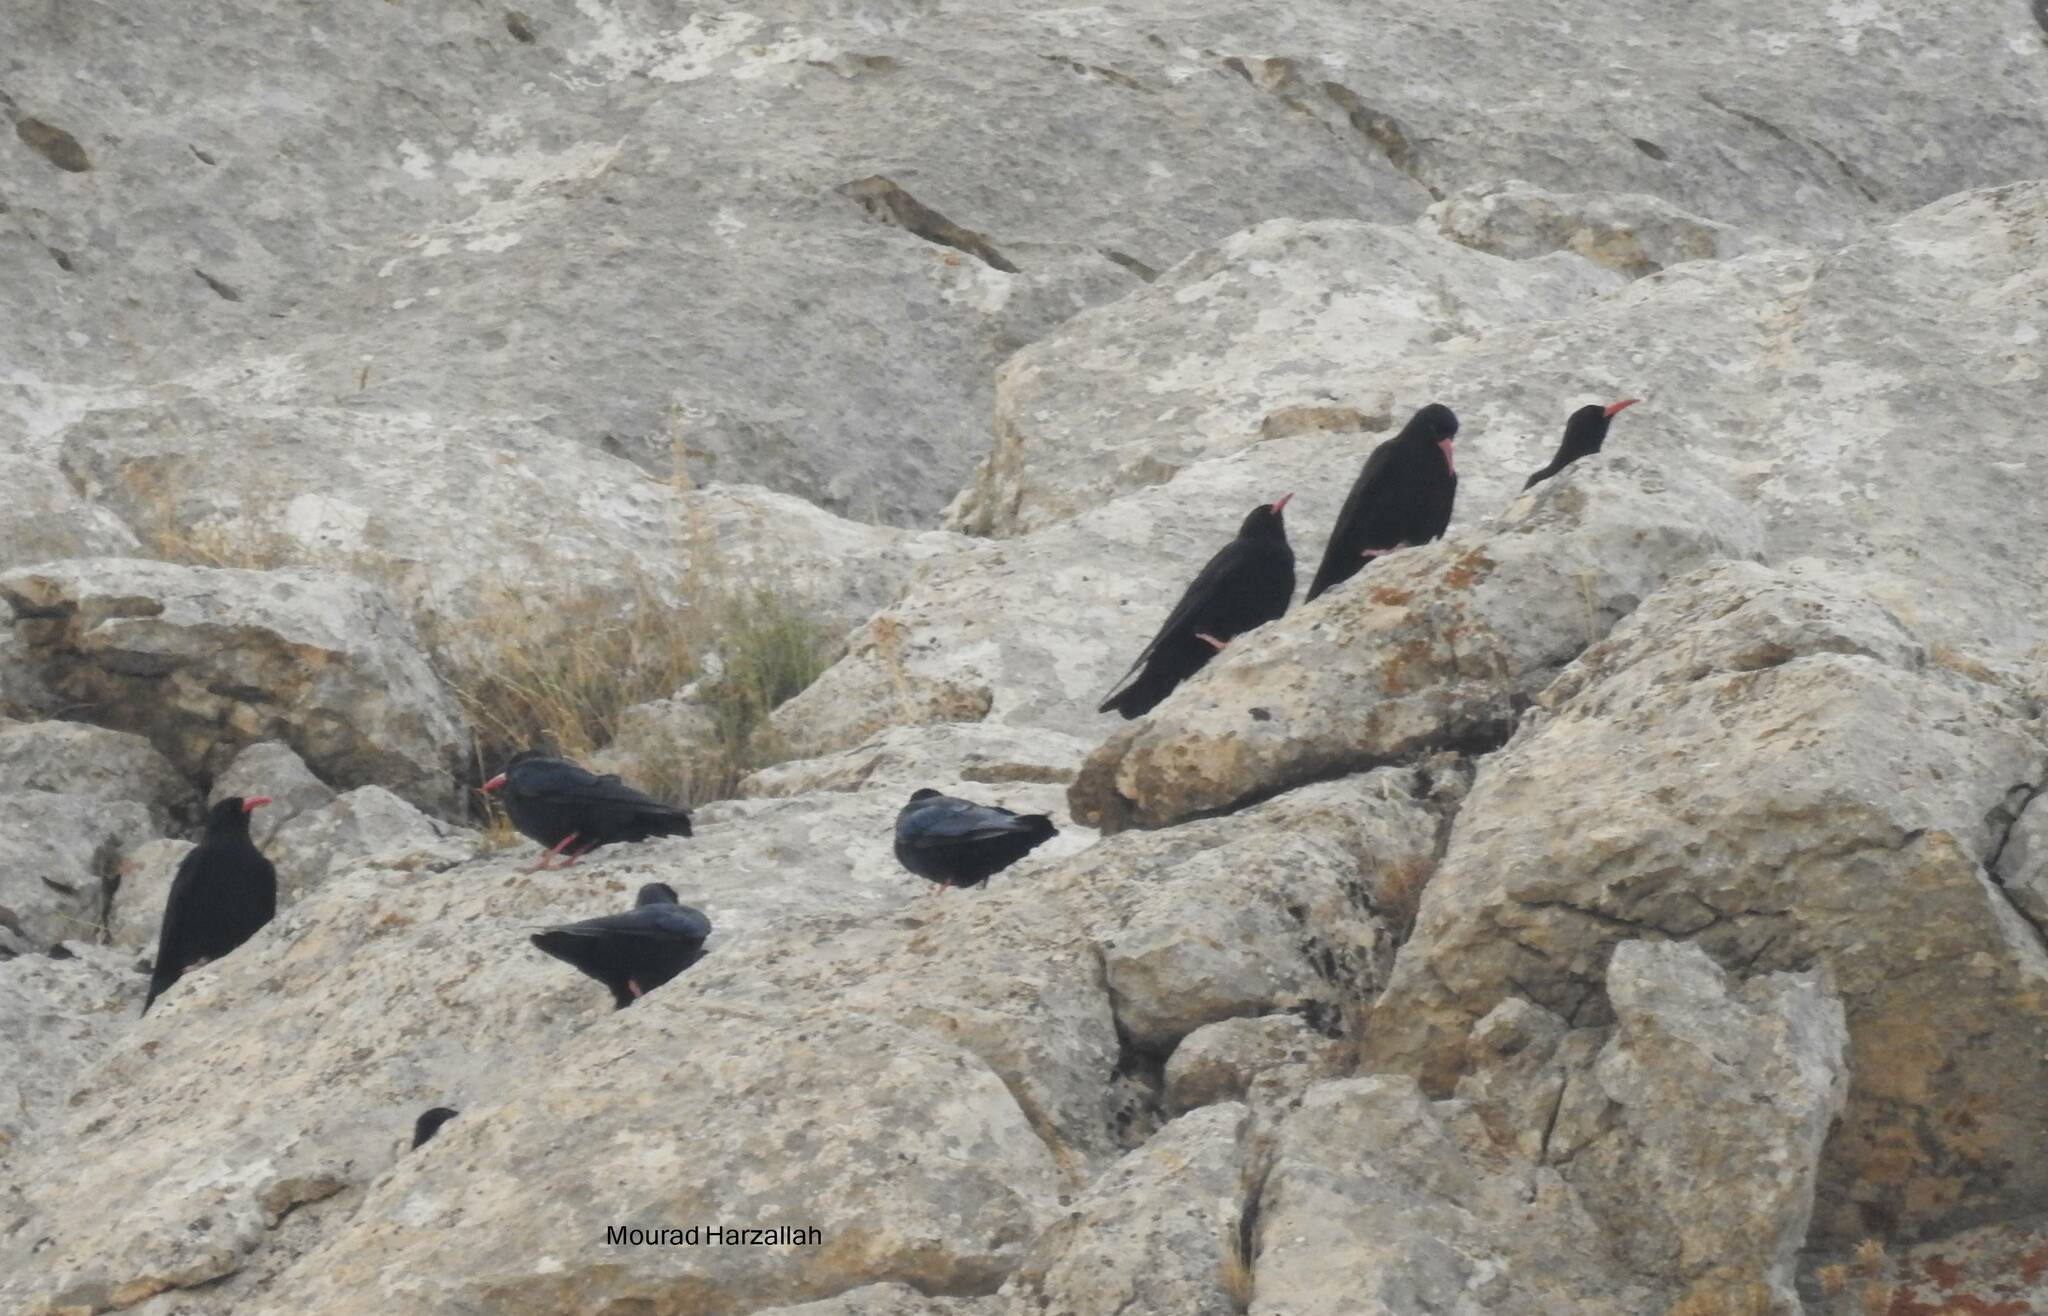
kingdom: Animalia
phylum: Chordata
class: Aves
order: Passeriformes
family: Corvidae
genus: Pyrrhocorax
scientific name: Pyrrhocorax pyrrhocorax
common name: Red-billed chough
